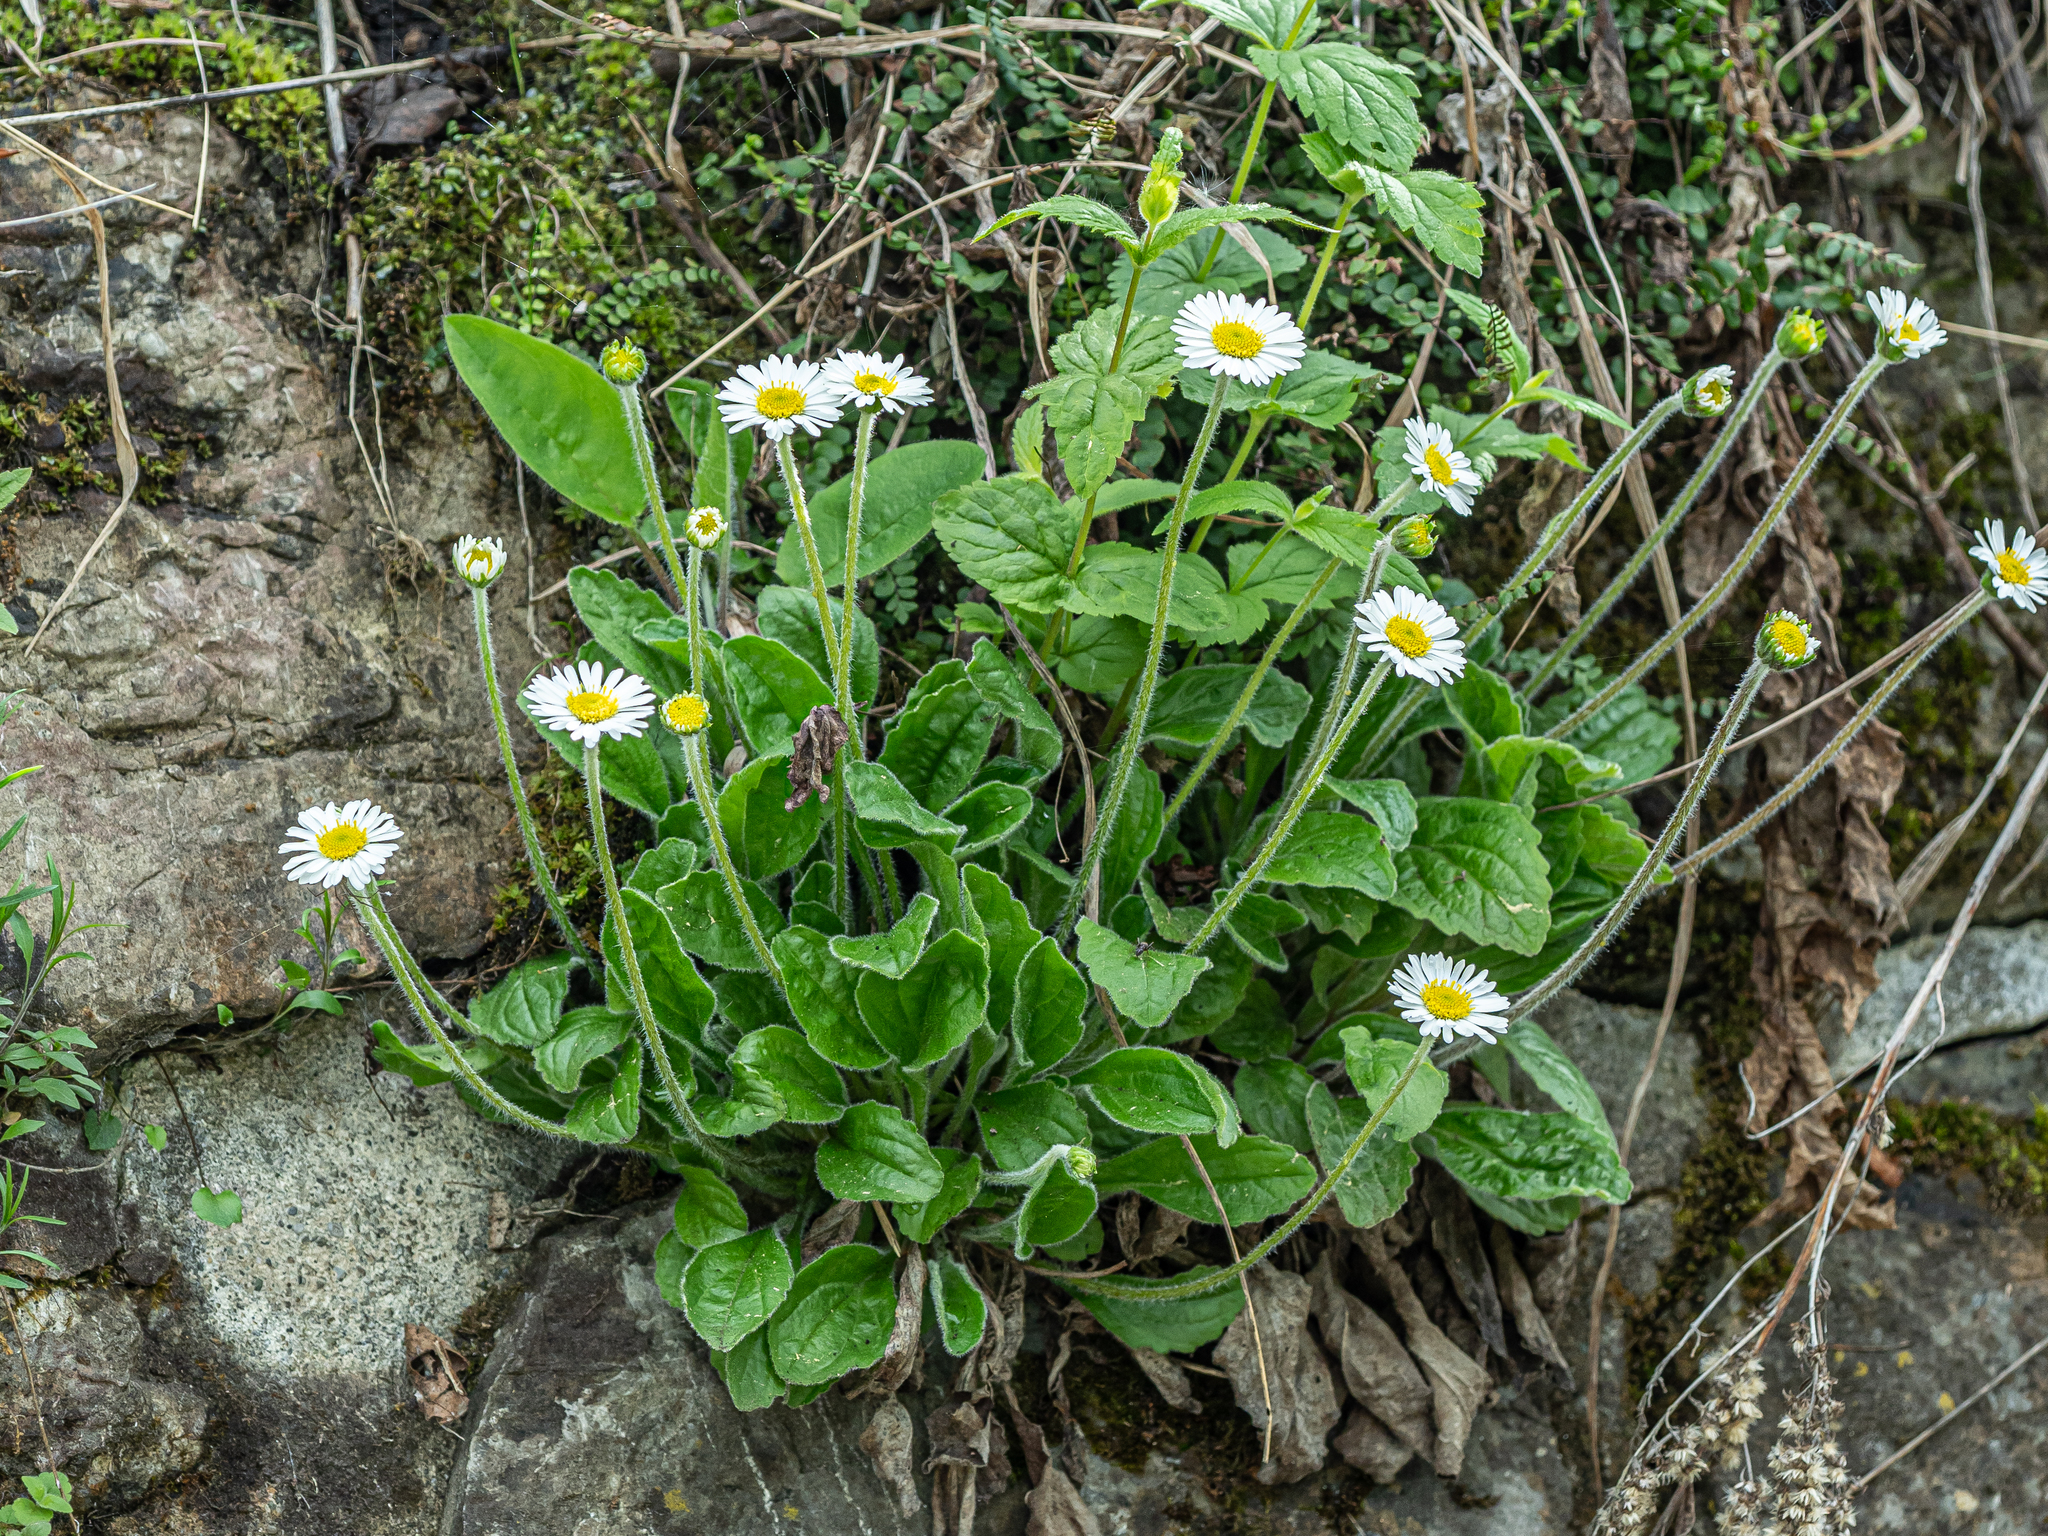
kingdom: Plantae
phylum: Tracheophyta
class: Magnoliopsida
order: Asterales
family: Asteraceae
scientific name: Asteraceae
